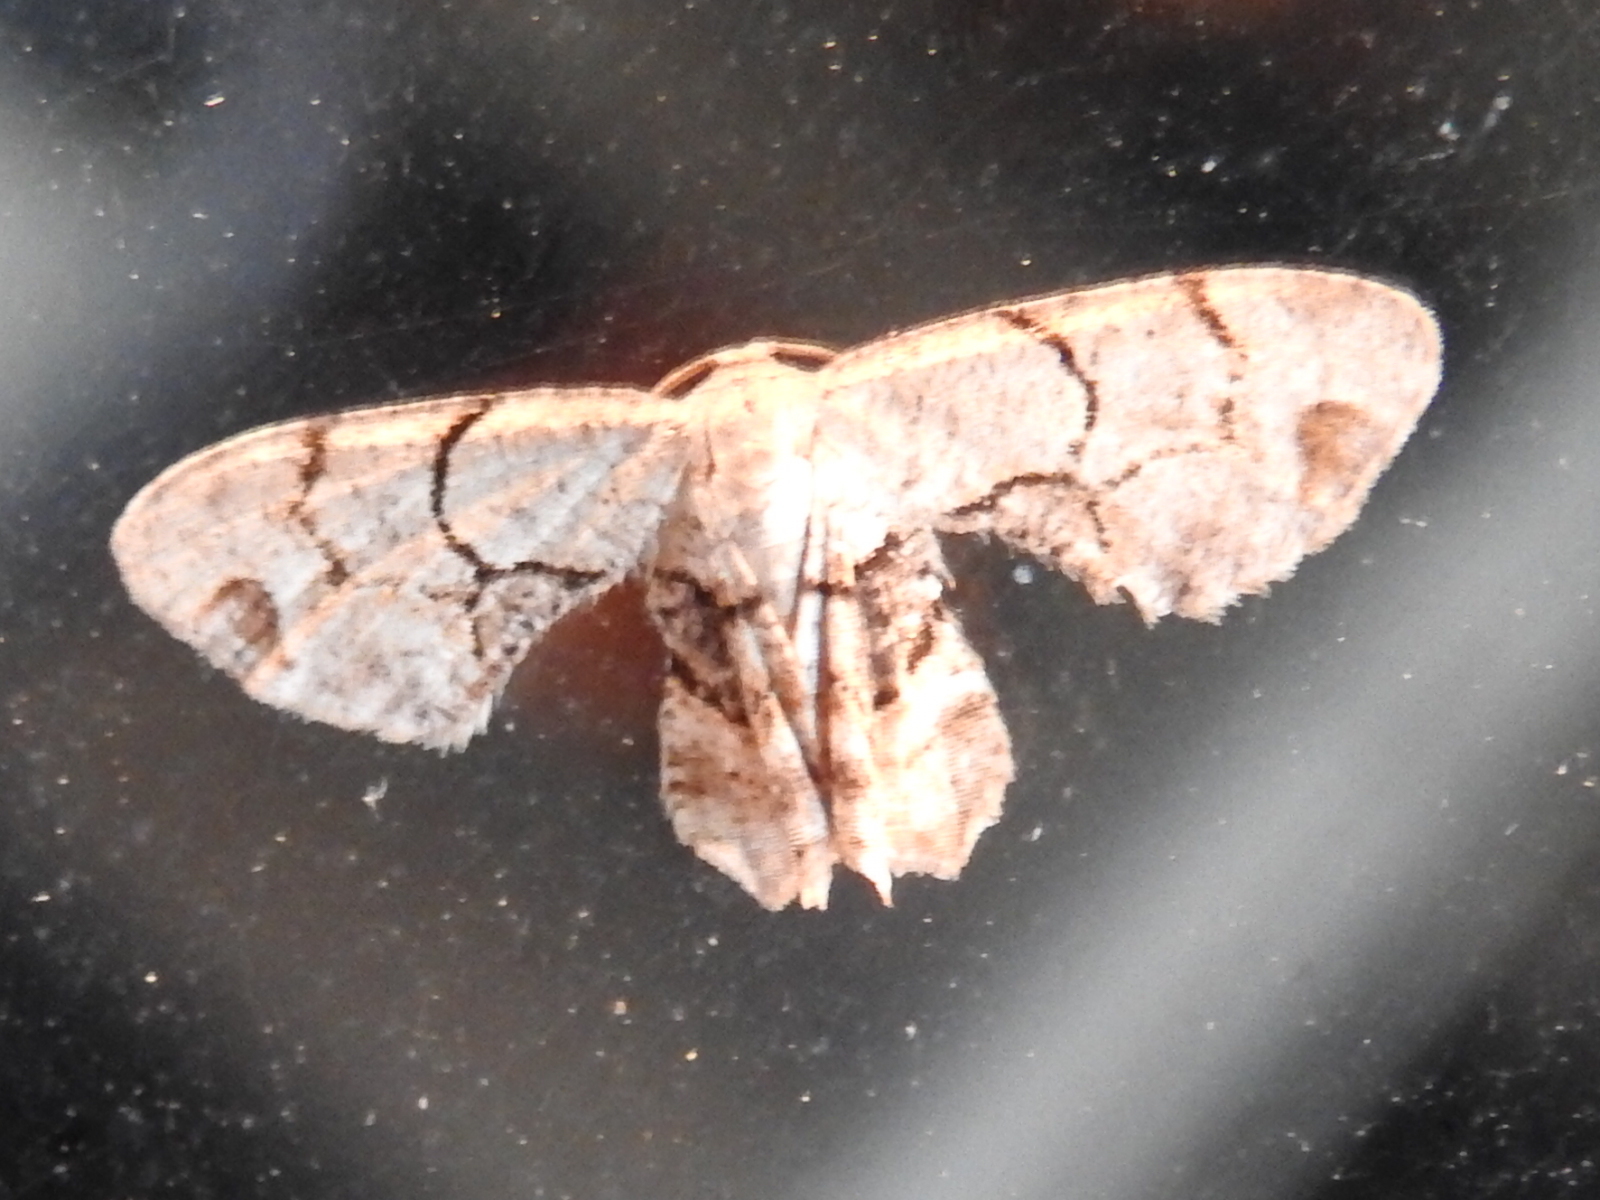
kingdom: Animalia
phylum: Arthropoda
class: Insecta
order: Lepidoptera
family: Uraniidae
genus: Epiplema
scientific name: Epiplema Callizzia amorata
